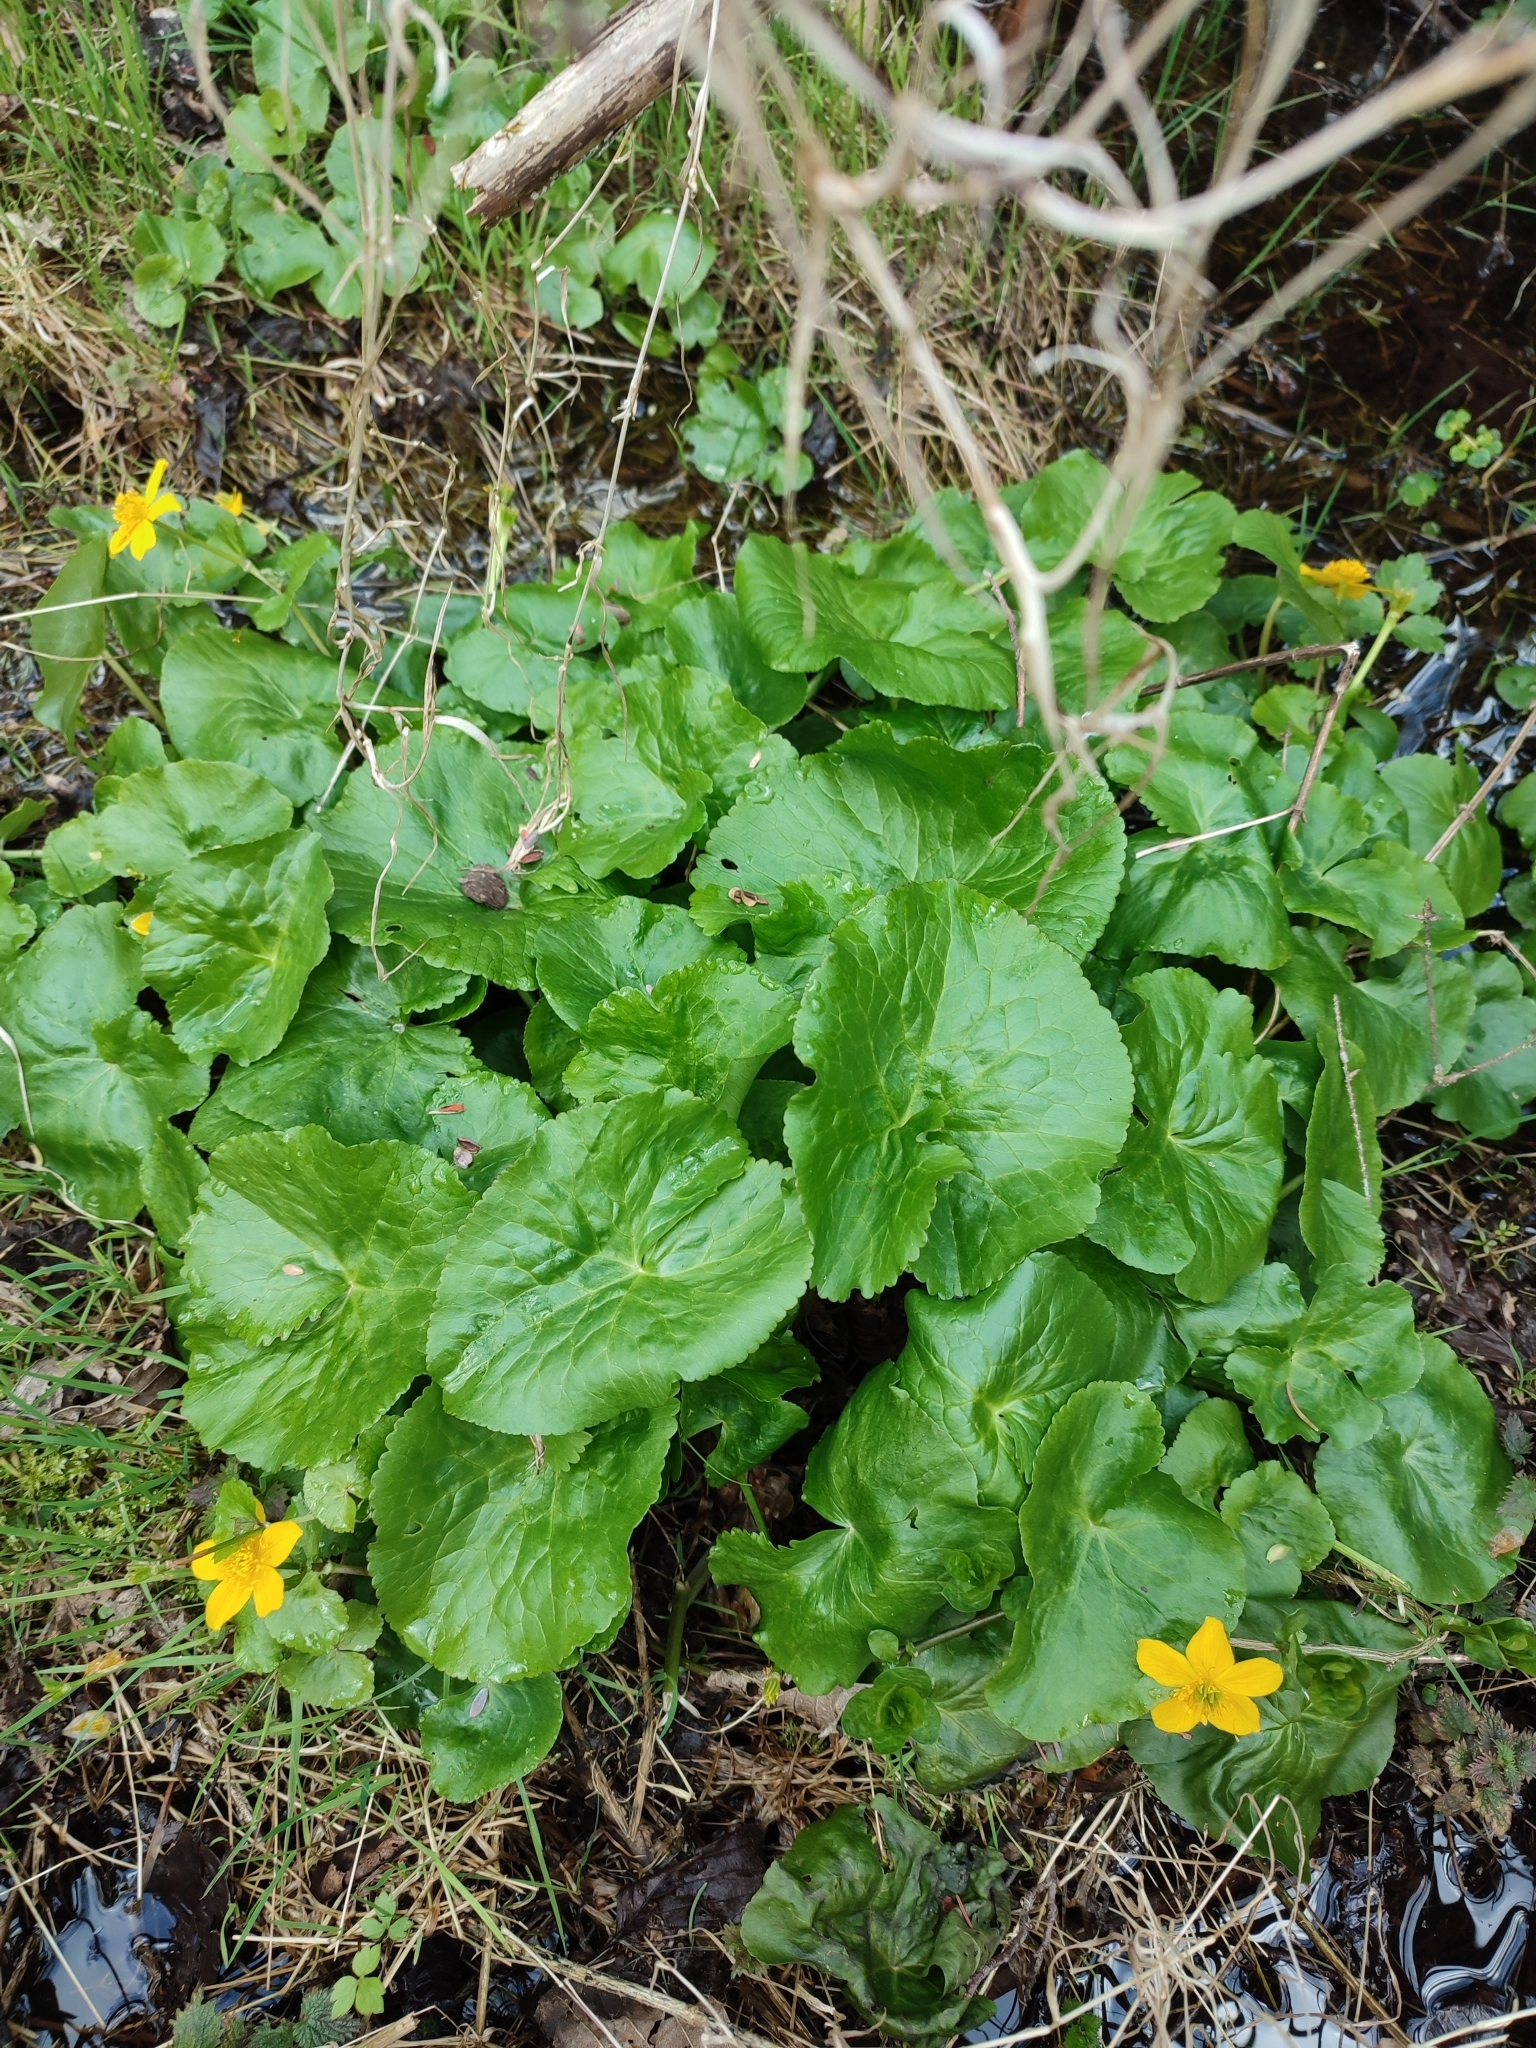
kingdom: Plantae
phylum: Tracheophyta
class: Magnoliopsida
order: Ranunculales
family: Ranunculaceae
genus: Caltha
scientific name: Caltha palustris
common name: Marsh marigold
